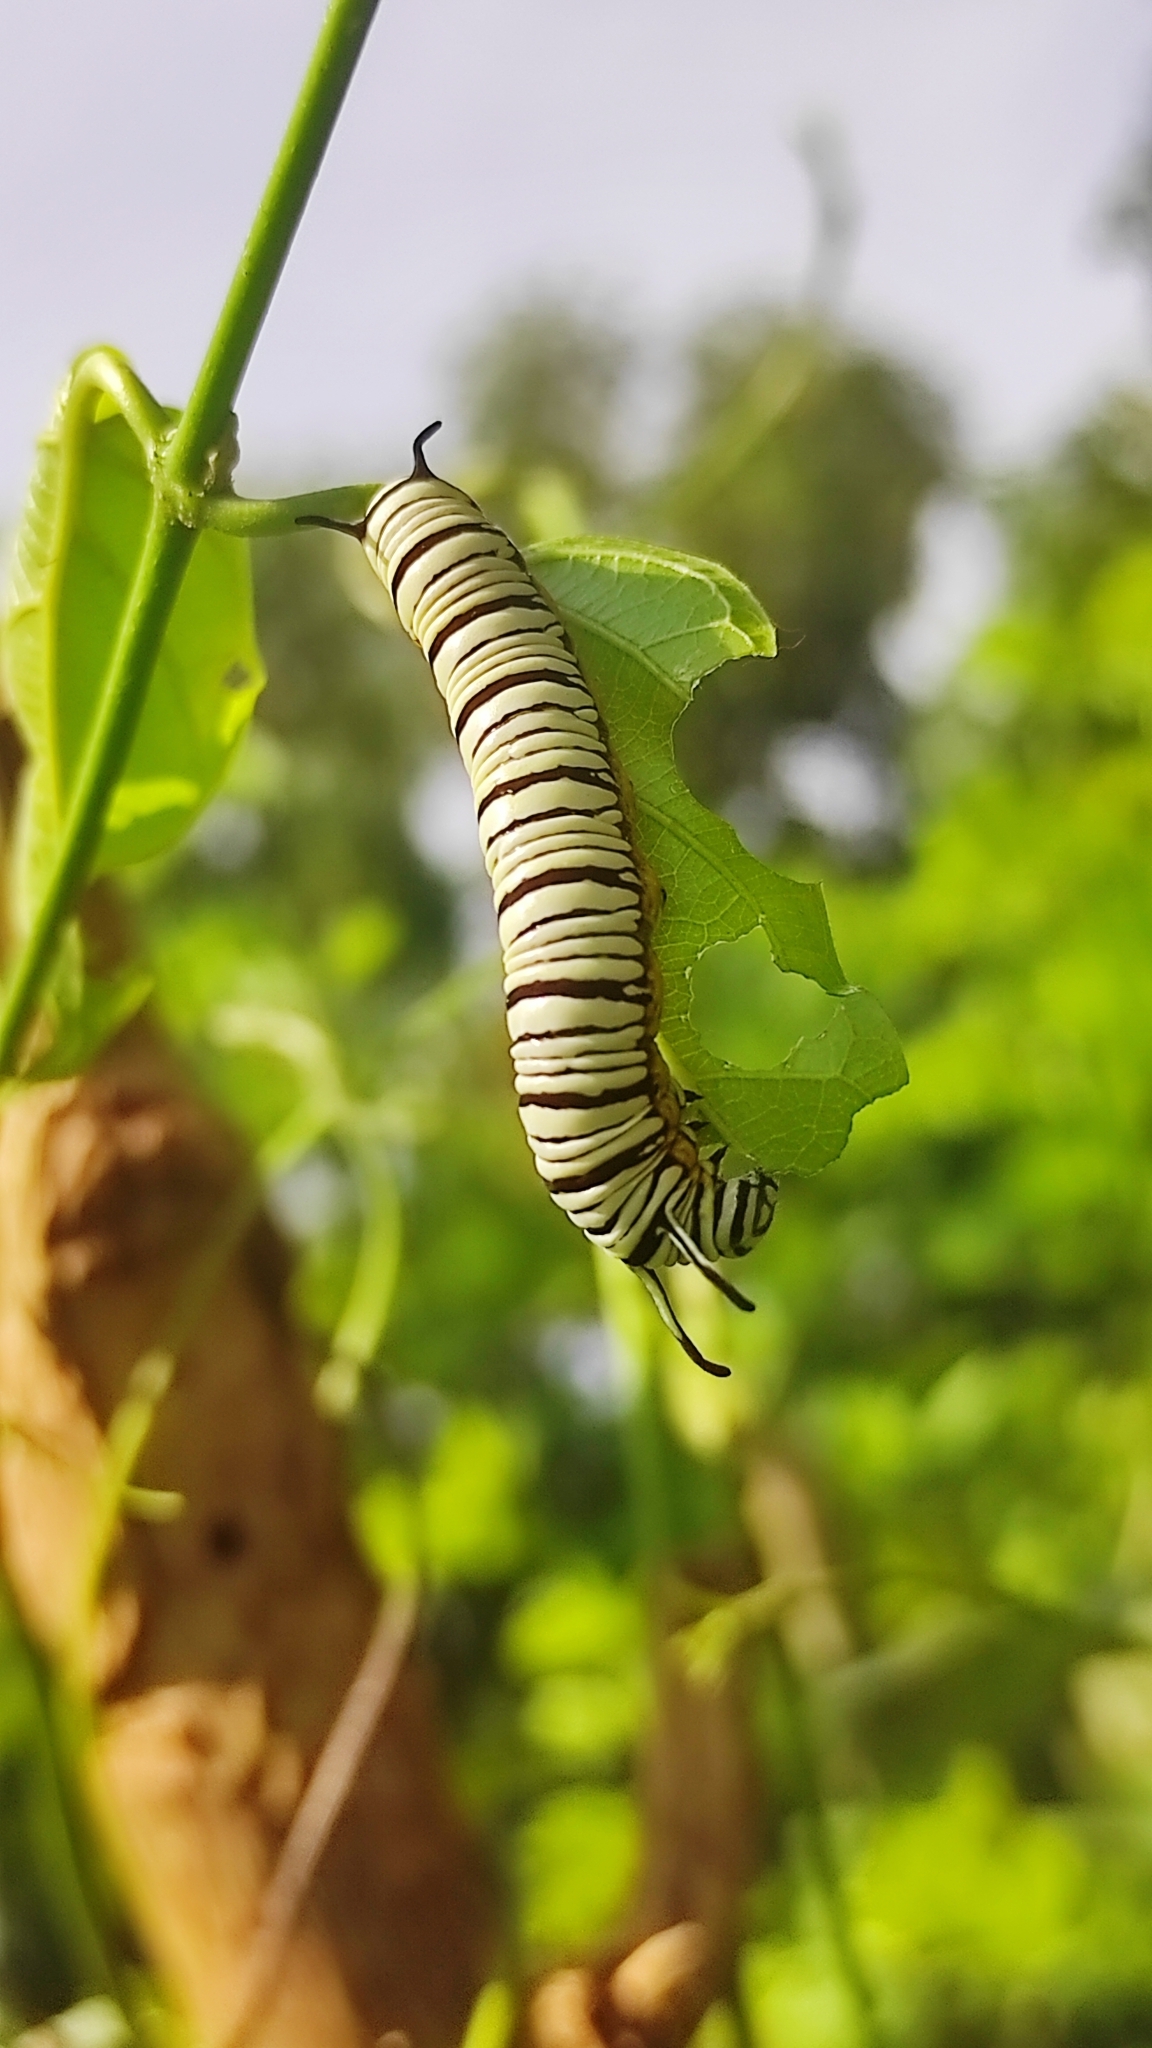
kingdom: Animalia
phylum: Arthropoda
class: Insecta
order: Lepidoptera
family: Nymphalidae
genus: Tirumala
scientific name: Tirumala limniace
